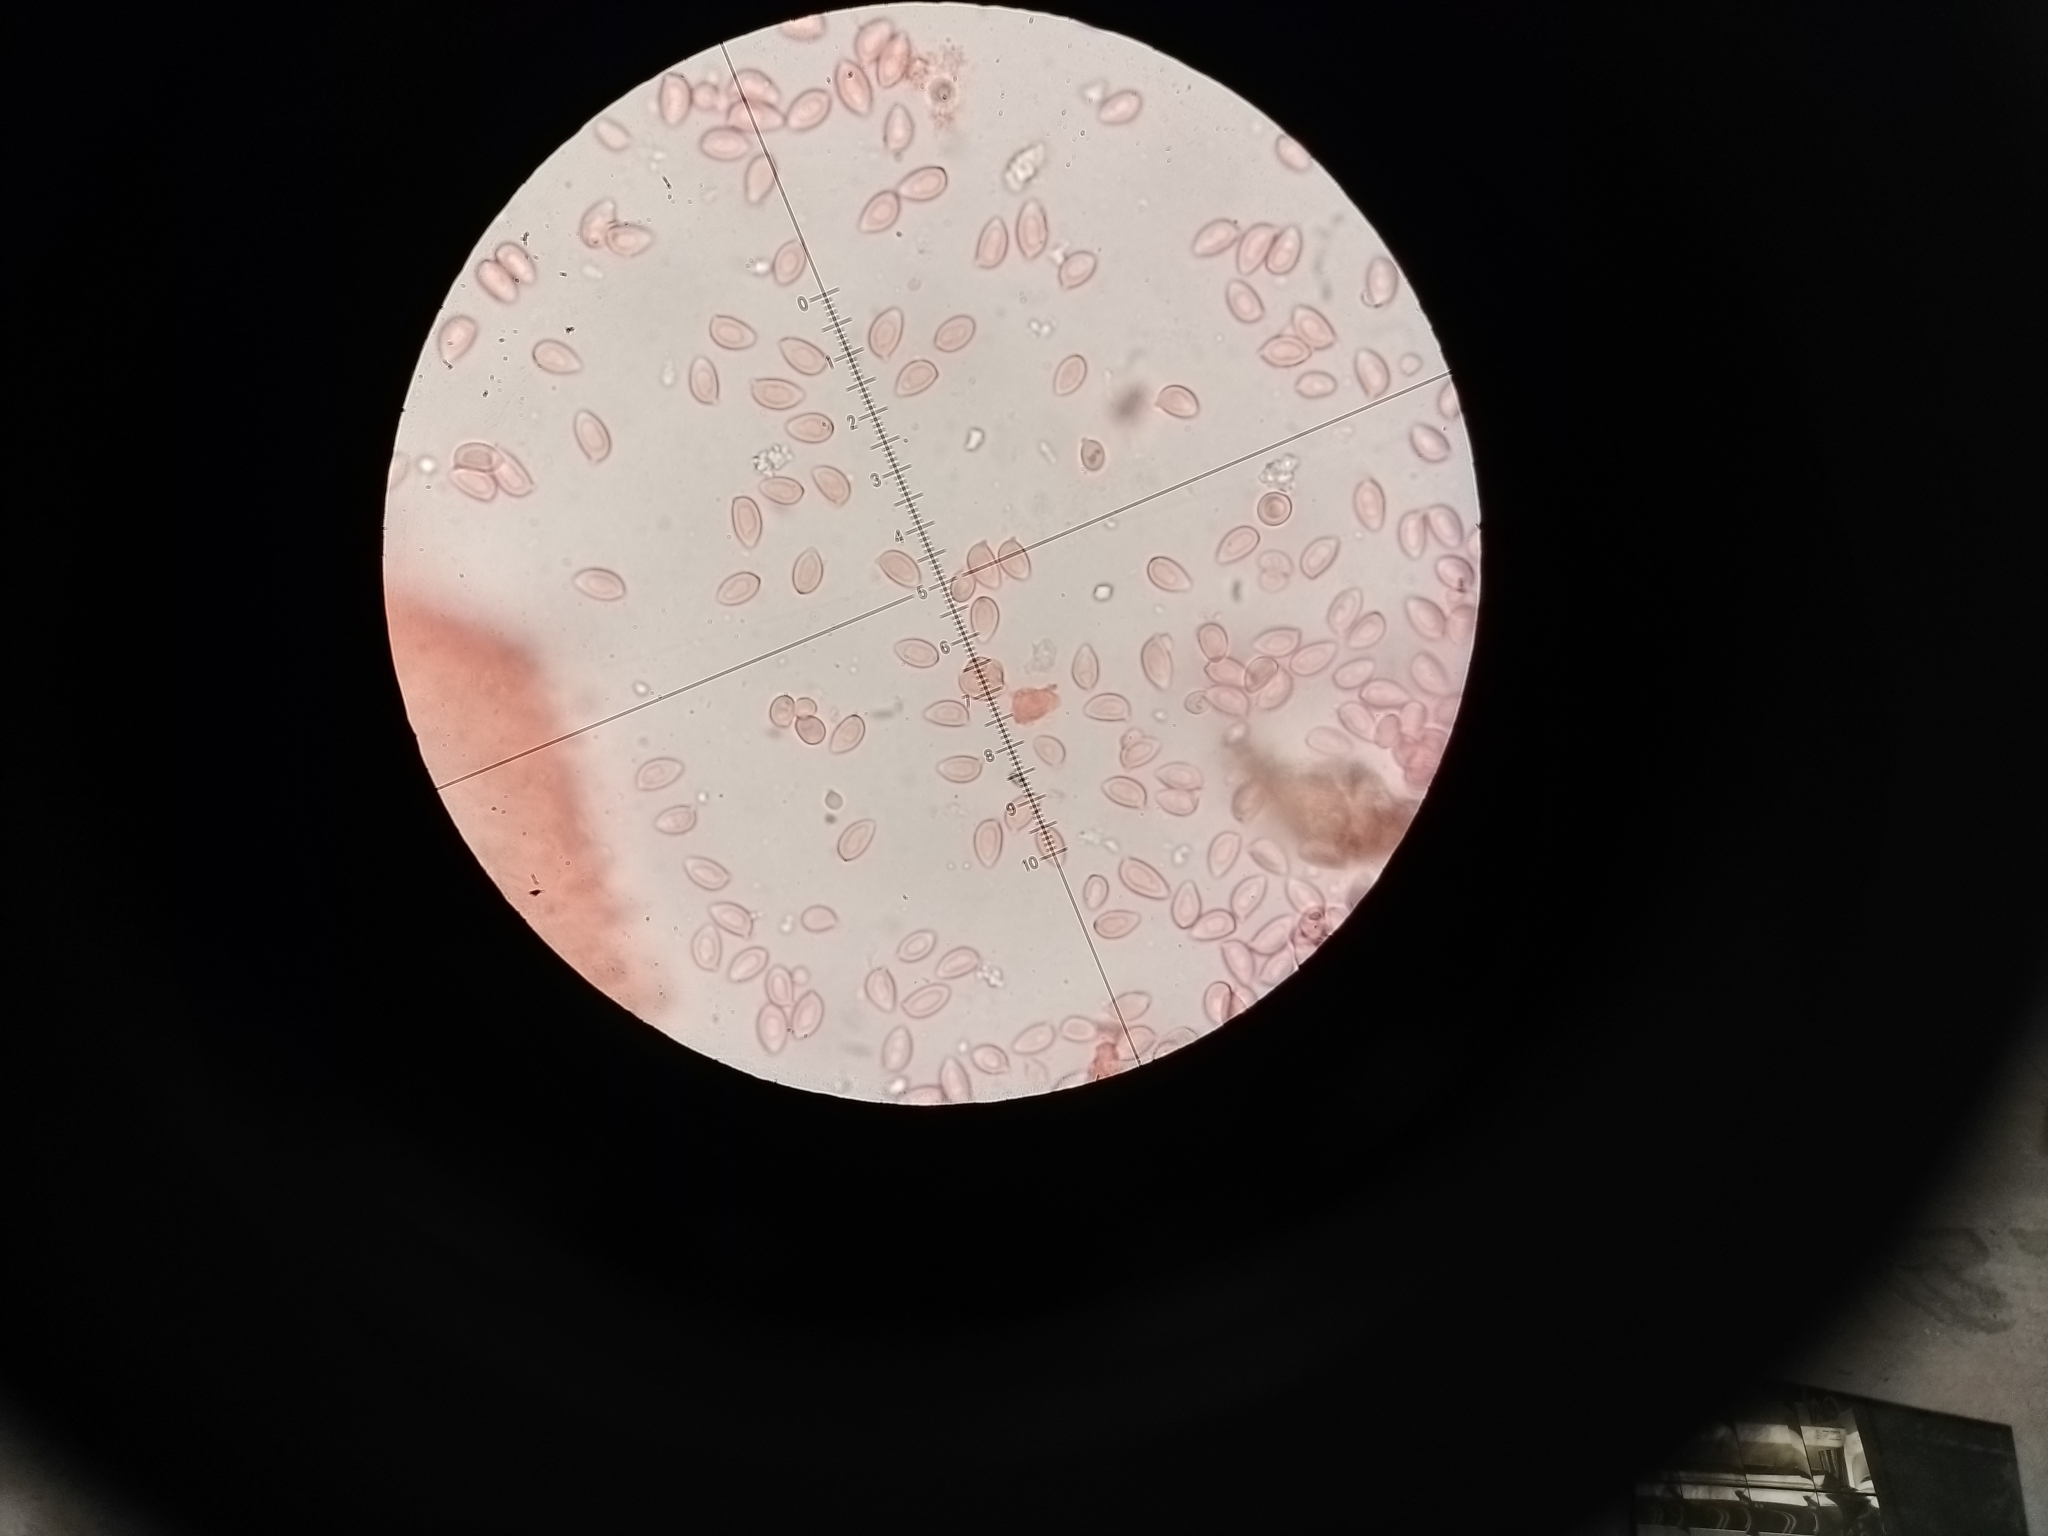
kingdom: Fungi
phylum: Ascomycota
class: Sordariomycetes
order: Xylariales
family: Xylariaceae
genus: Xylaria
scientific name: Xylaria cubensis
